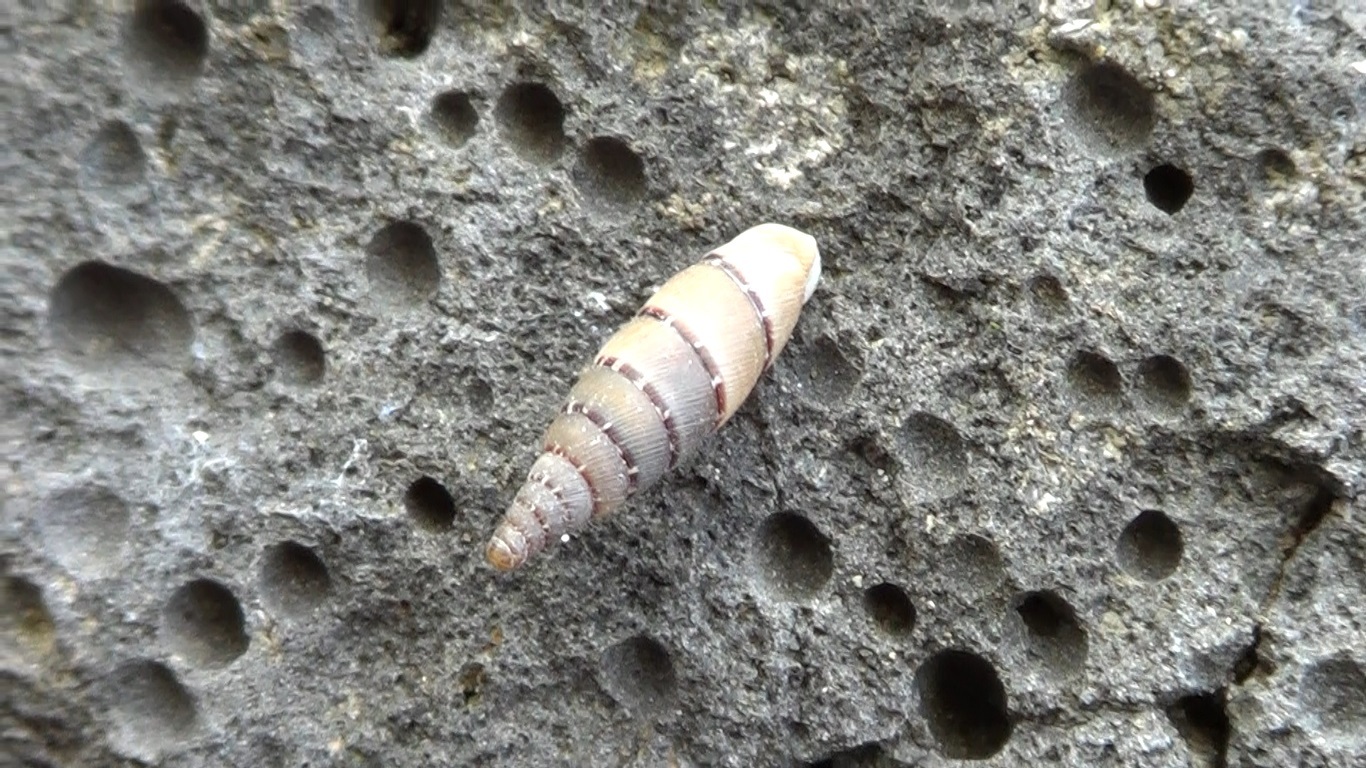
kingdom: Animalia
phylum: Mollusca
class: Gastropoda
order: Stylommatophora
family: Clausiliidae
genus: Papillifera
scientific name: Papillifera papillaris
